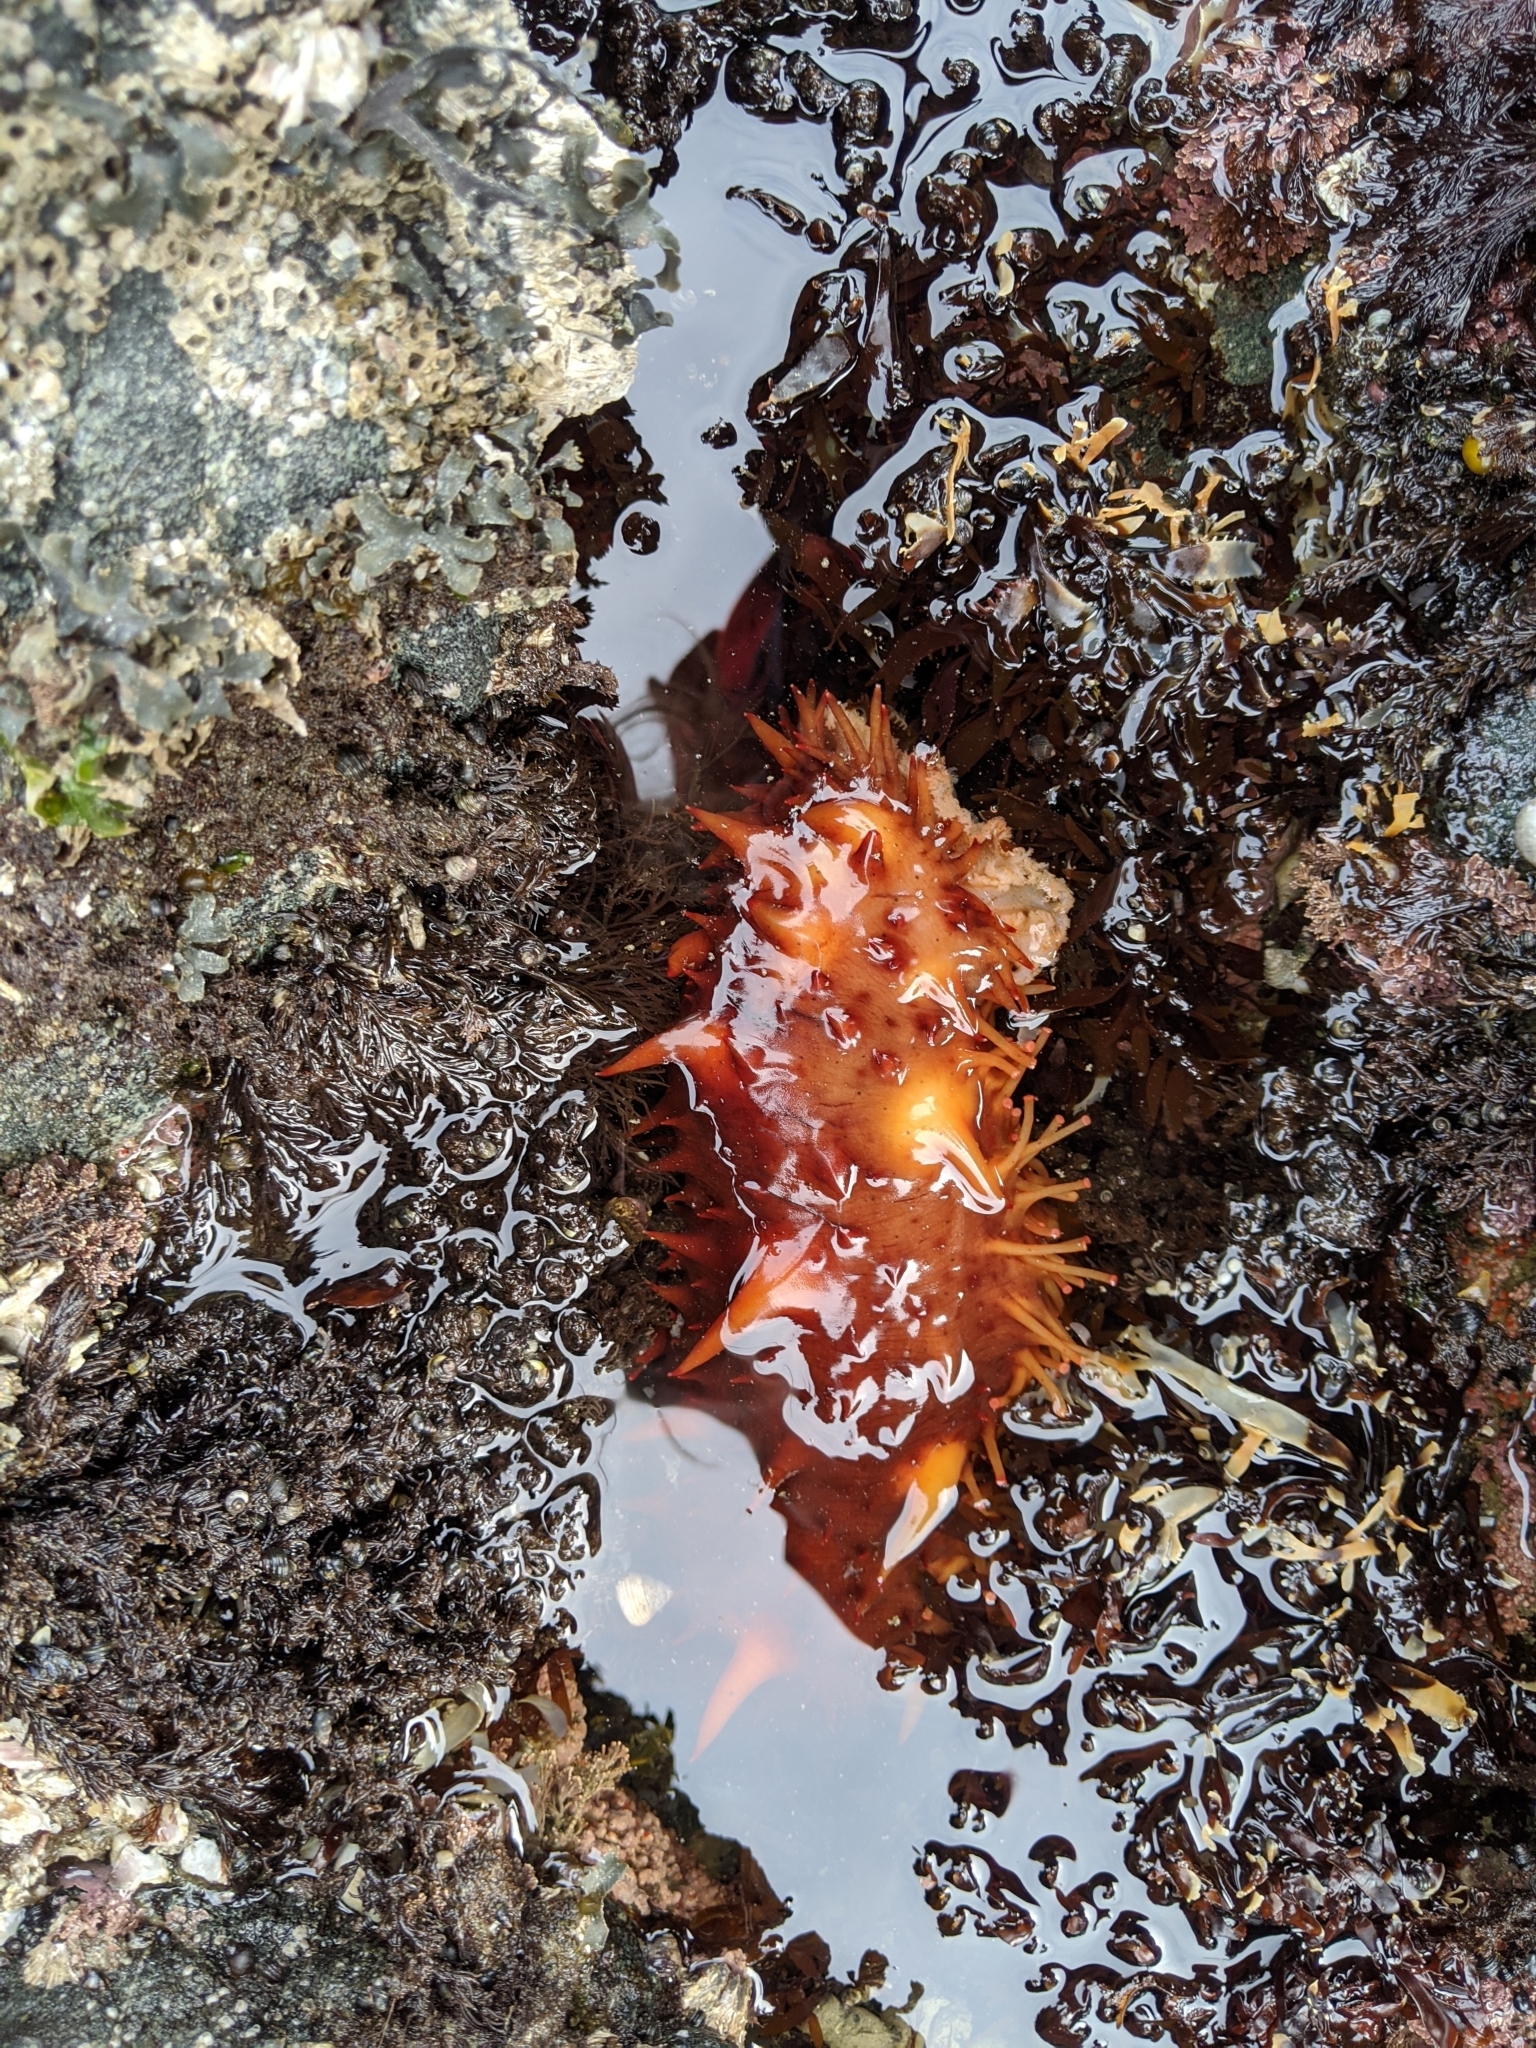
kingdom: Animalia
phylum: Echinodermata
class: Holothuroidea
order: Synallactida
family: Stichopodidae
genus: Apostichopus
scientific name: Apostichopus californicus
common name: California sea cucumber
